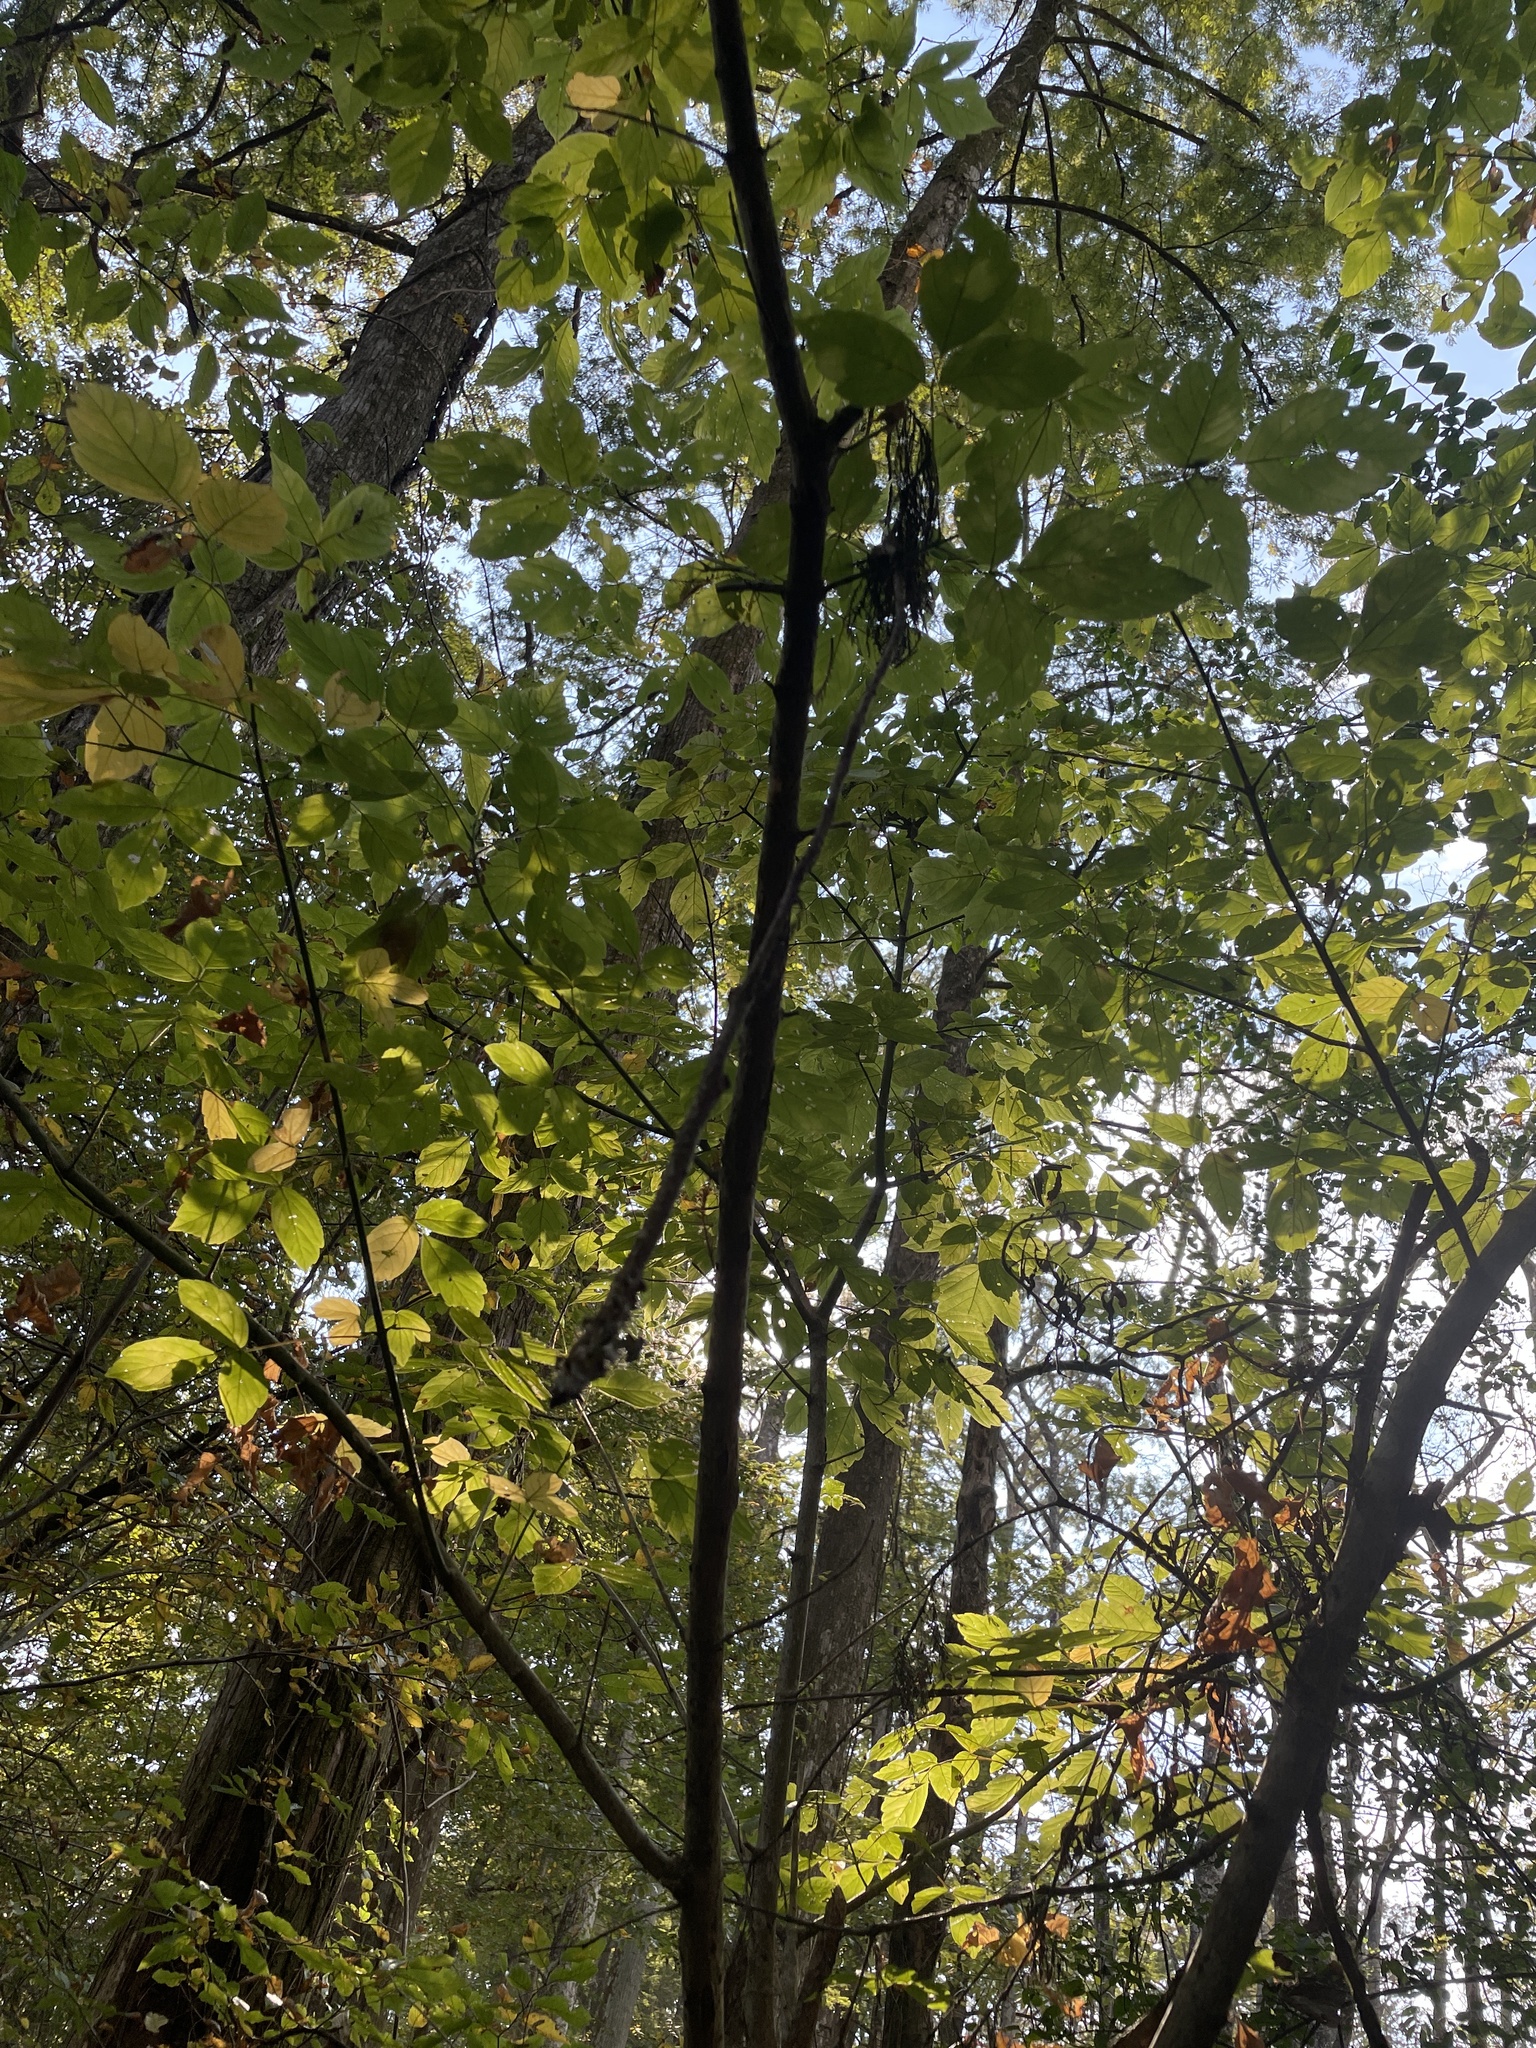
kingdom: Plantae
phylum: Tracheophyta
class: Magnoliopsida
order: Sapindales
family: Sapindaceae
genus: Acer
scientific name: Acer negundo
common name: Ashleaf maple
